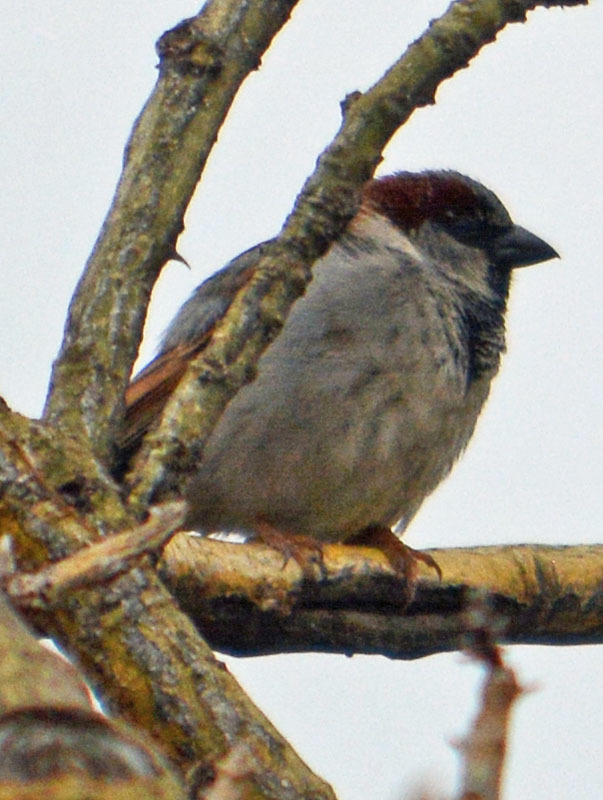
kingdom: Animalia
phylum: Chordata
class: Aves
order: Passeriformes
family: Passeridae
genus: Passer
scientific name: Passer domesticus
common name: House sparrow
